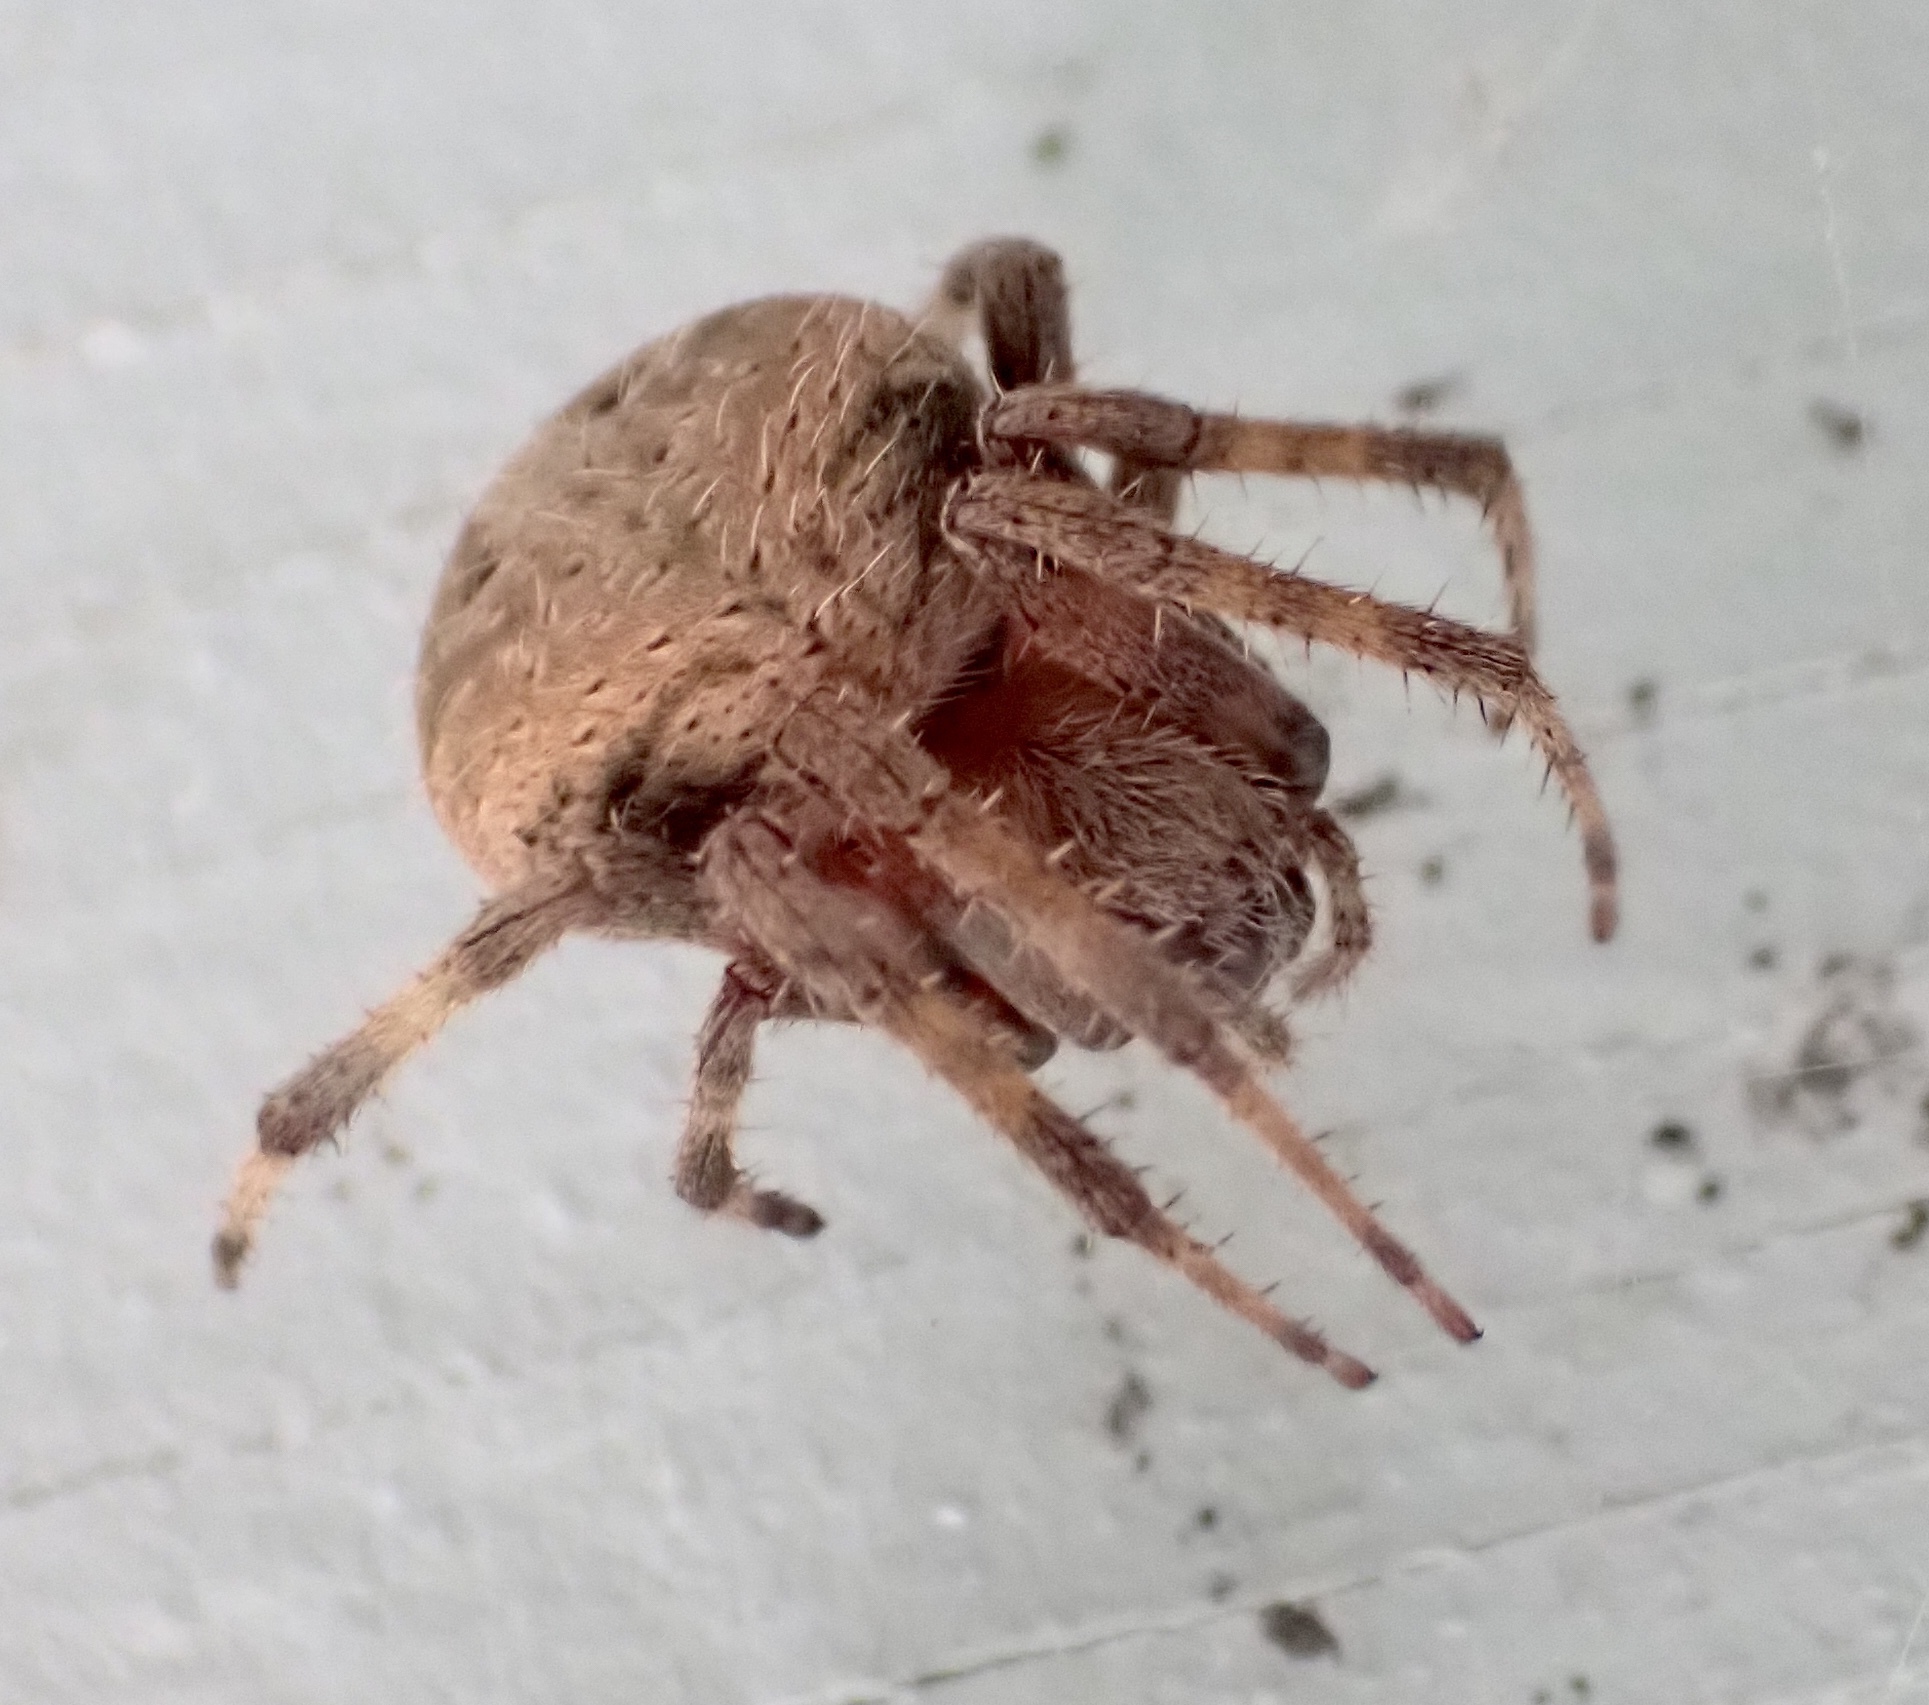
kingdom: Animalia
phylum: Arthropoda
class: Arachnida
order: Araneae
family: Araneidae
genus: Neoscona
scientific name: Neoscona crucifera
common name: Spotted orbweaver
